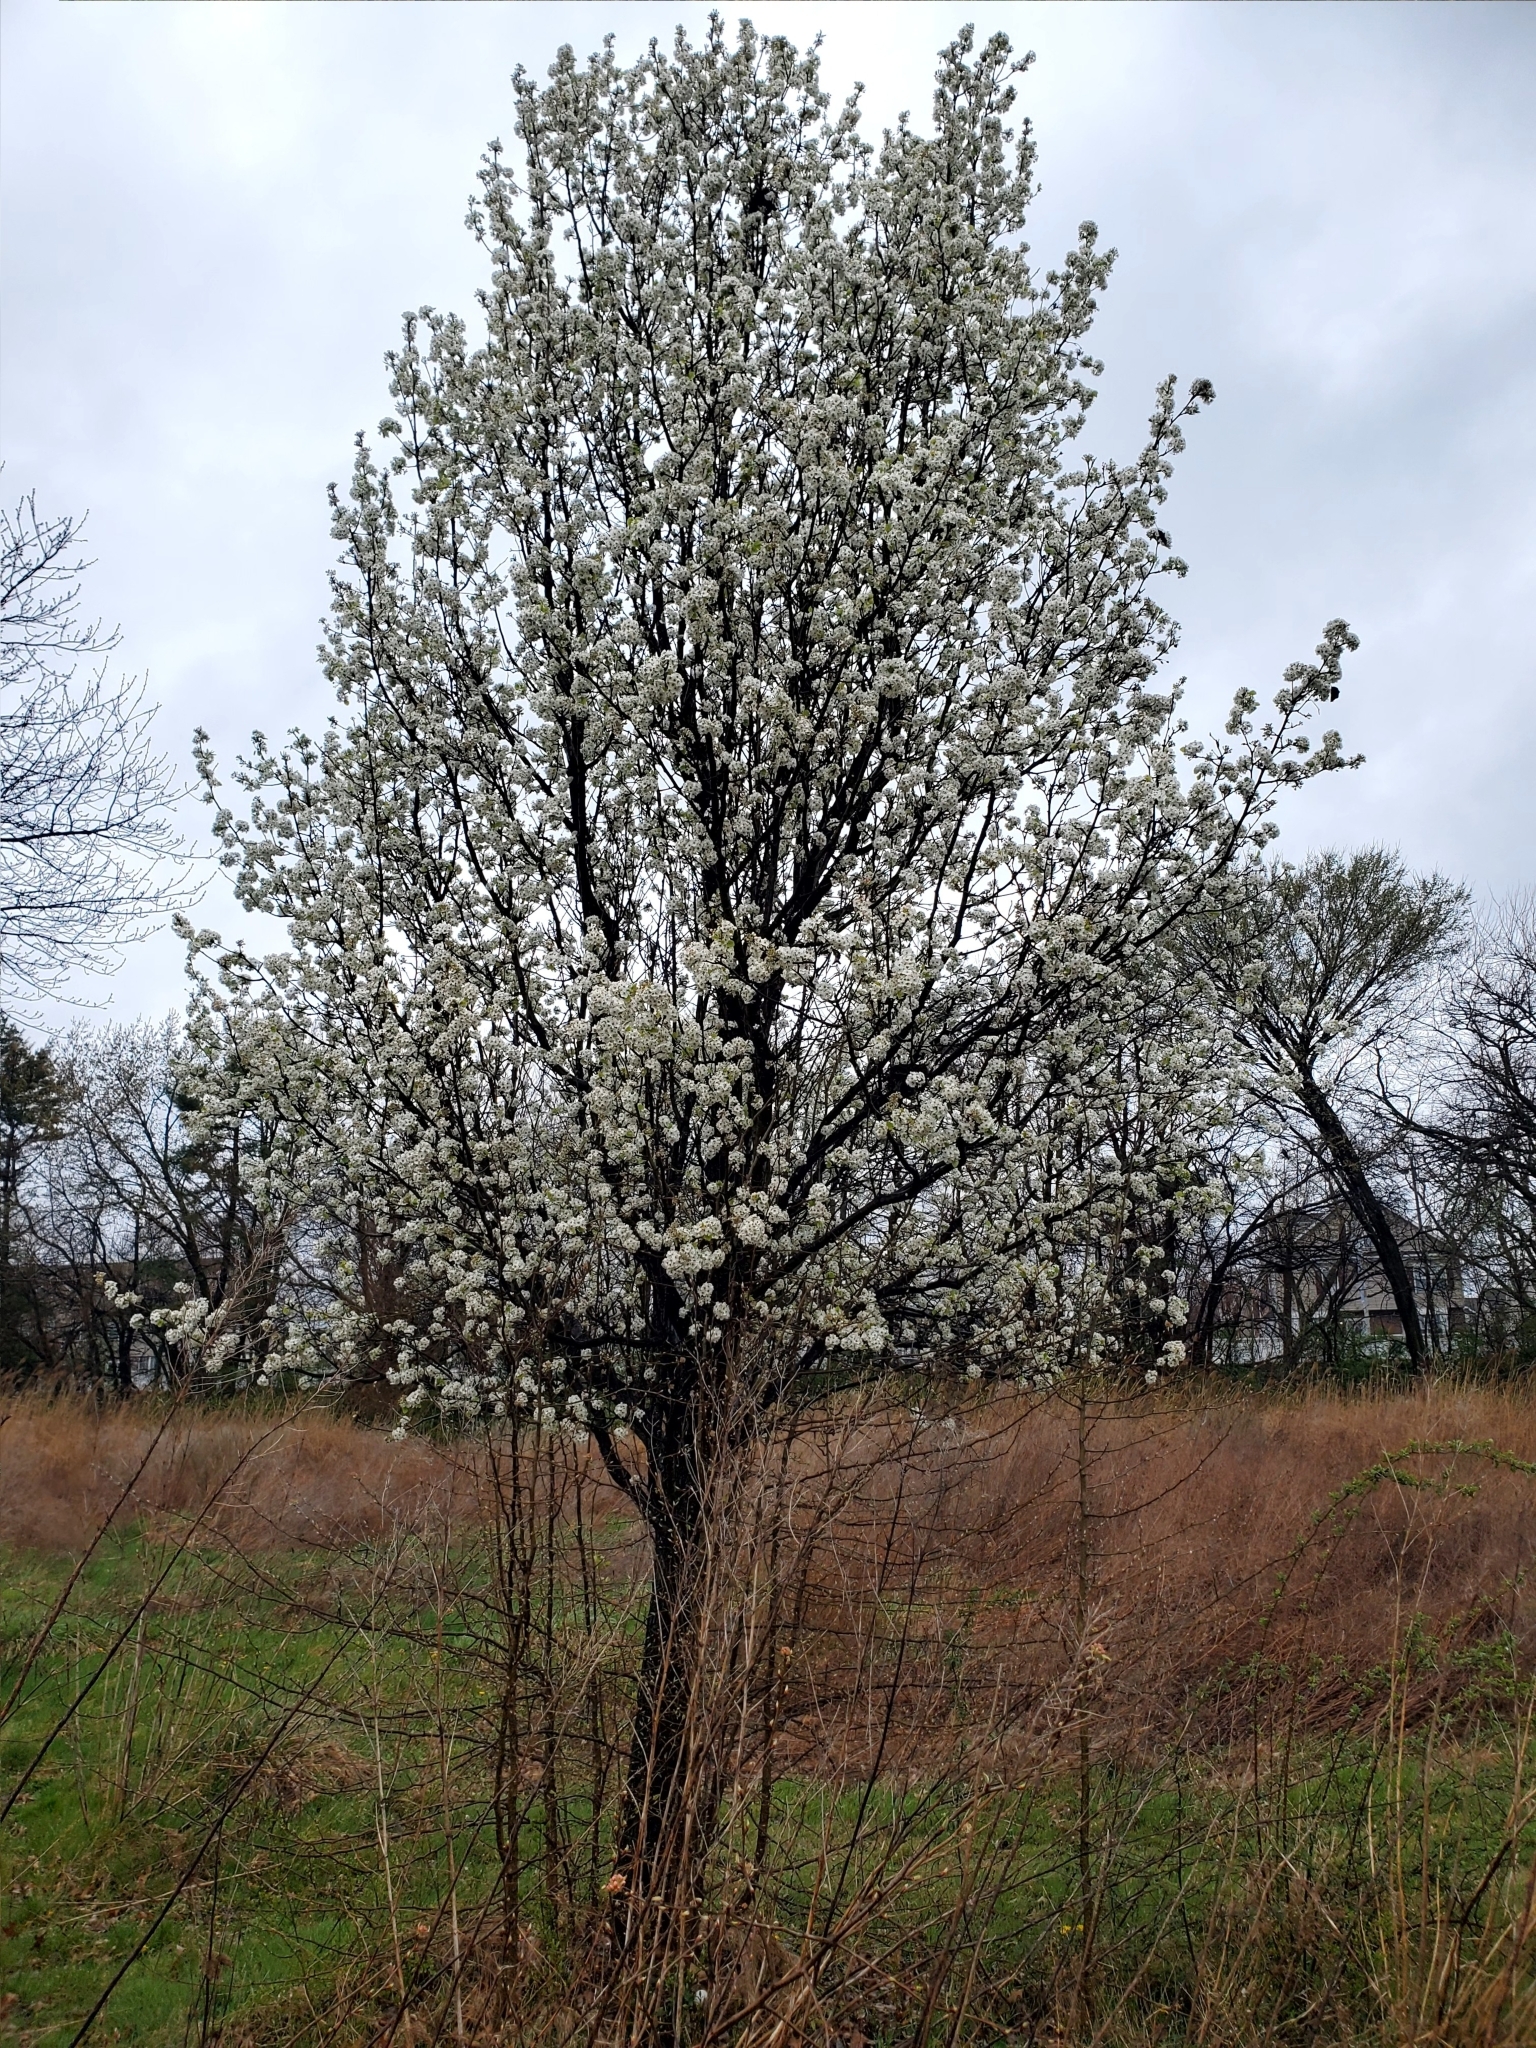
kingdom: Plantae
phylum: Tracheophyta
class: Magnoliopsida
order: Rosales
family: Rosaceae
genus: Pyrus
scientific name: Pyrus calleryana
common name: Callery pear
